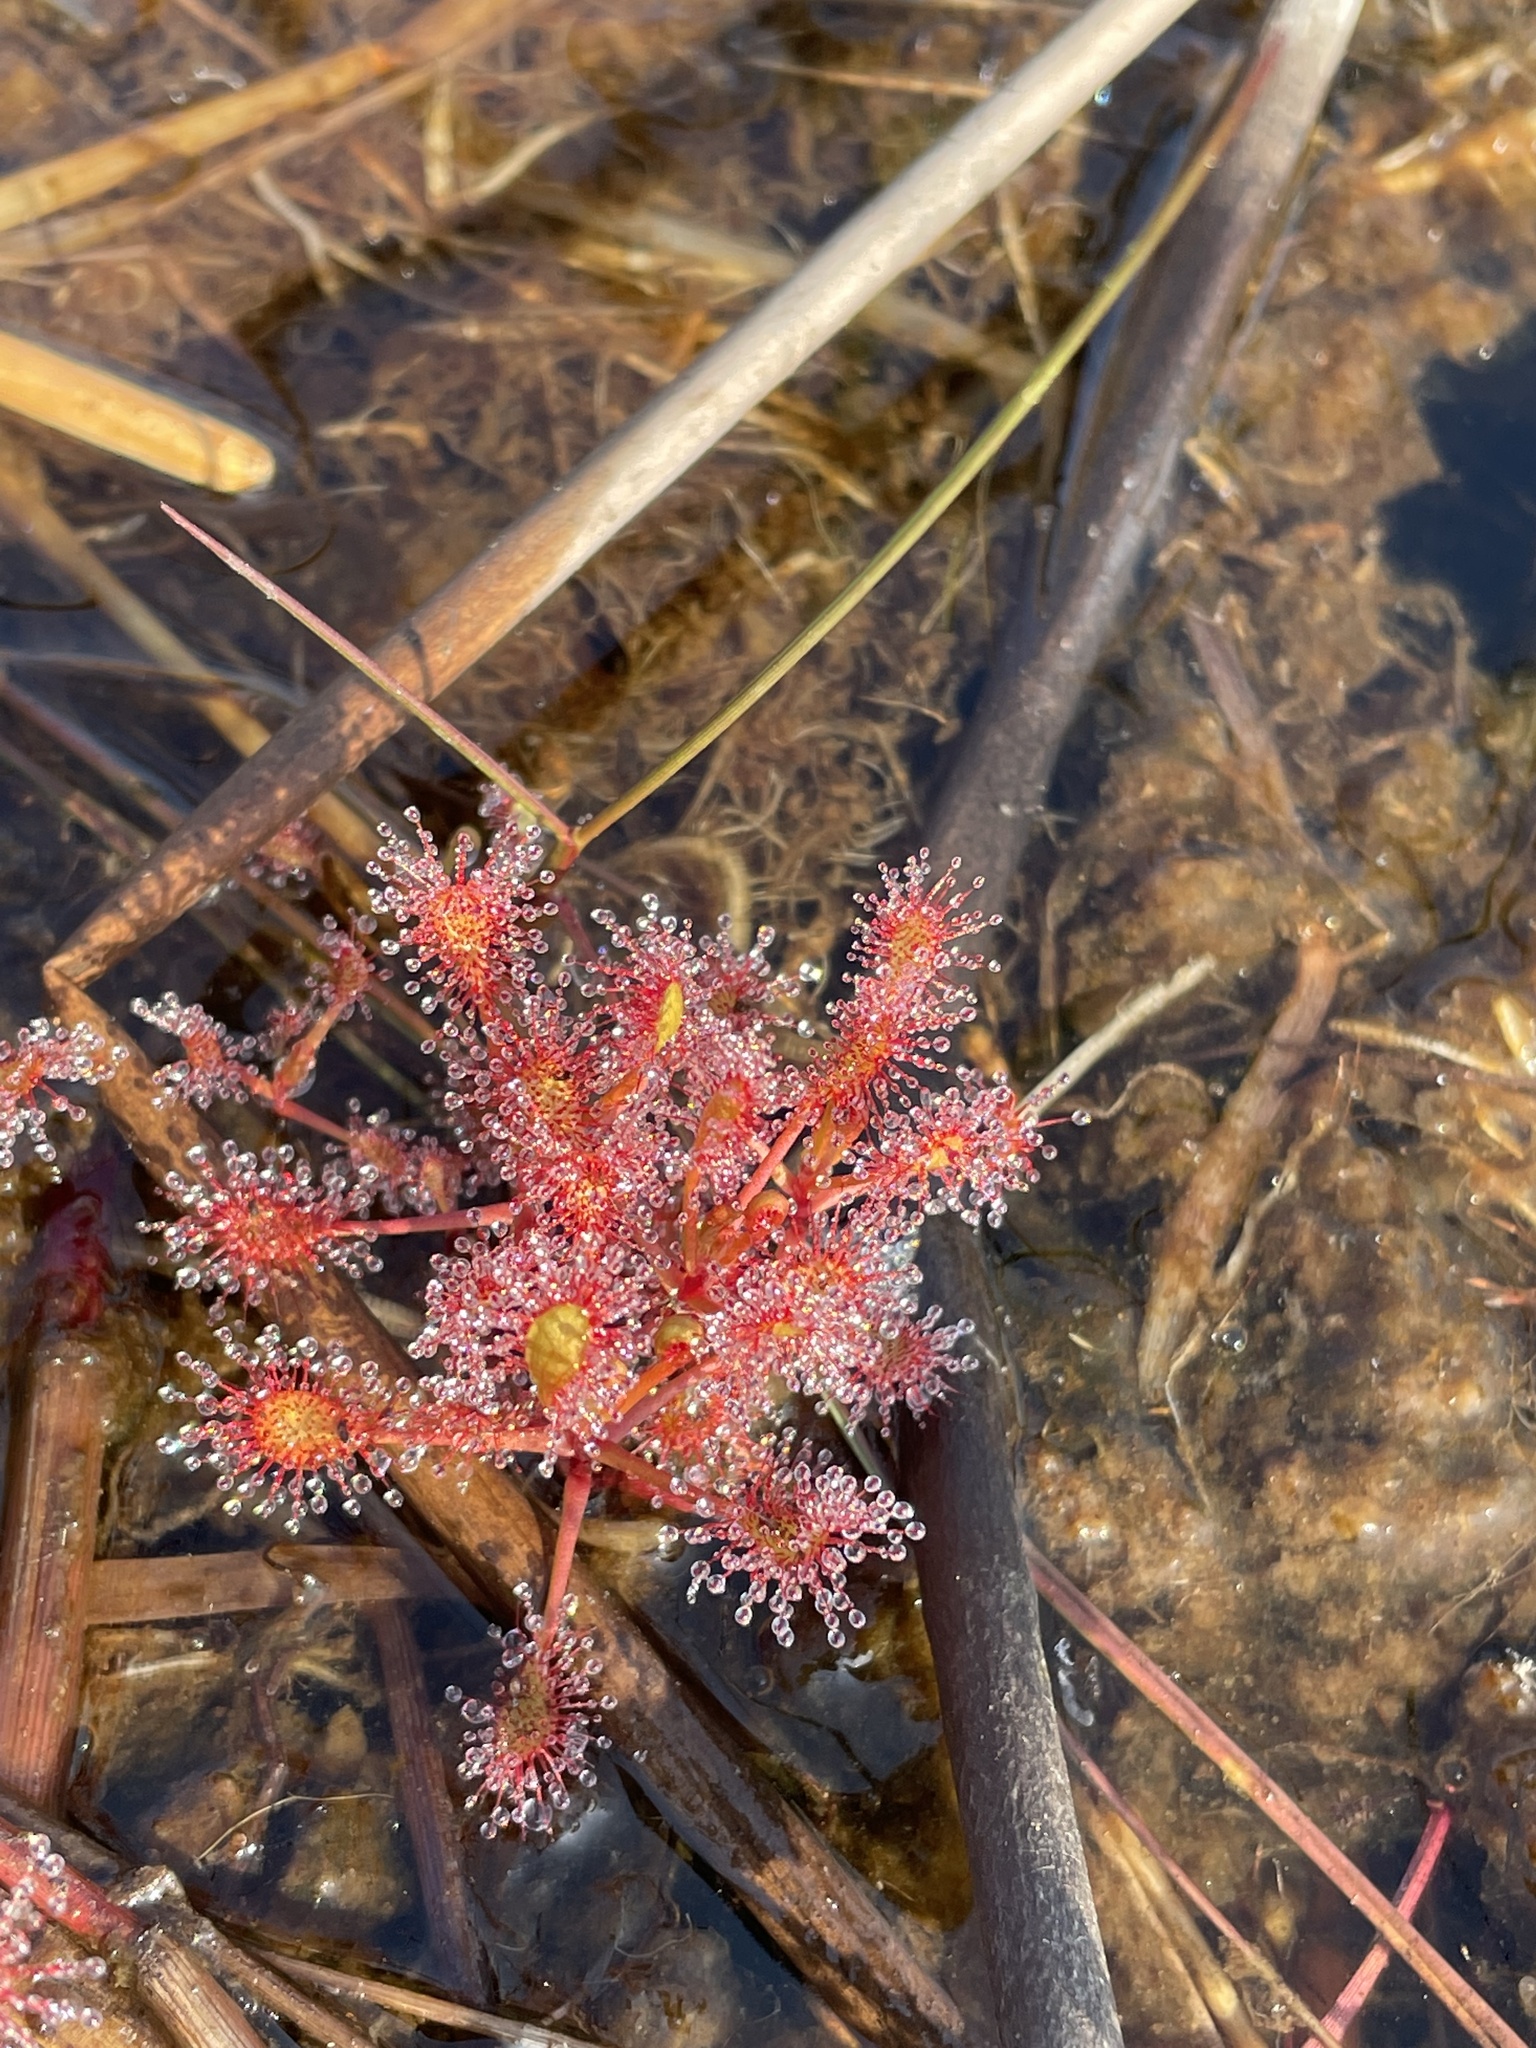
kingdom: Plantae
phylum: Tracheophyta
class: Magnoliopsida
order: Caryophyllales
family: Droseraceae
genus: Drosera
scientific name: Drosera madagascariensis
